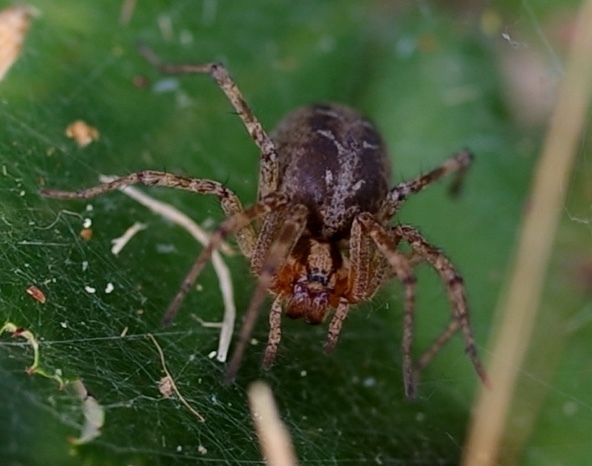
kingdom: Animalia
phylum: Arthropoda
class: Arachnida
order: Araneae
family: Agelenidae
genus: Agelena
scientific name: Agelena labyrinthica
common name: Labyrinth spider
